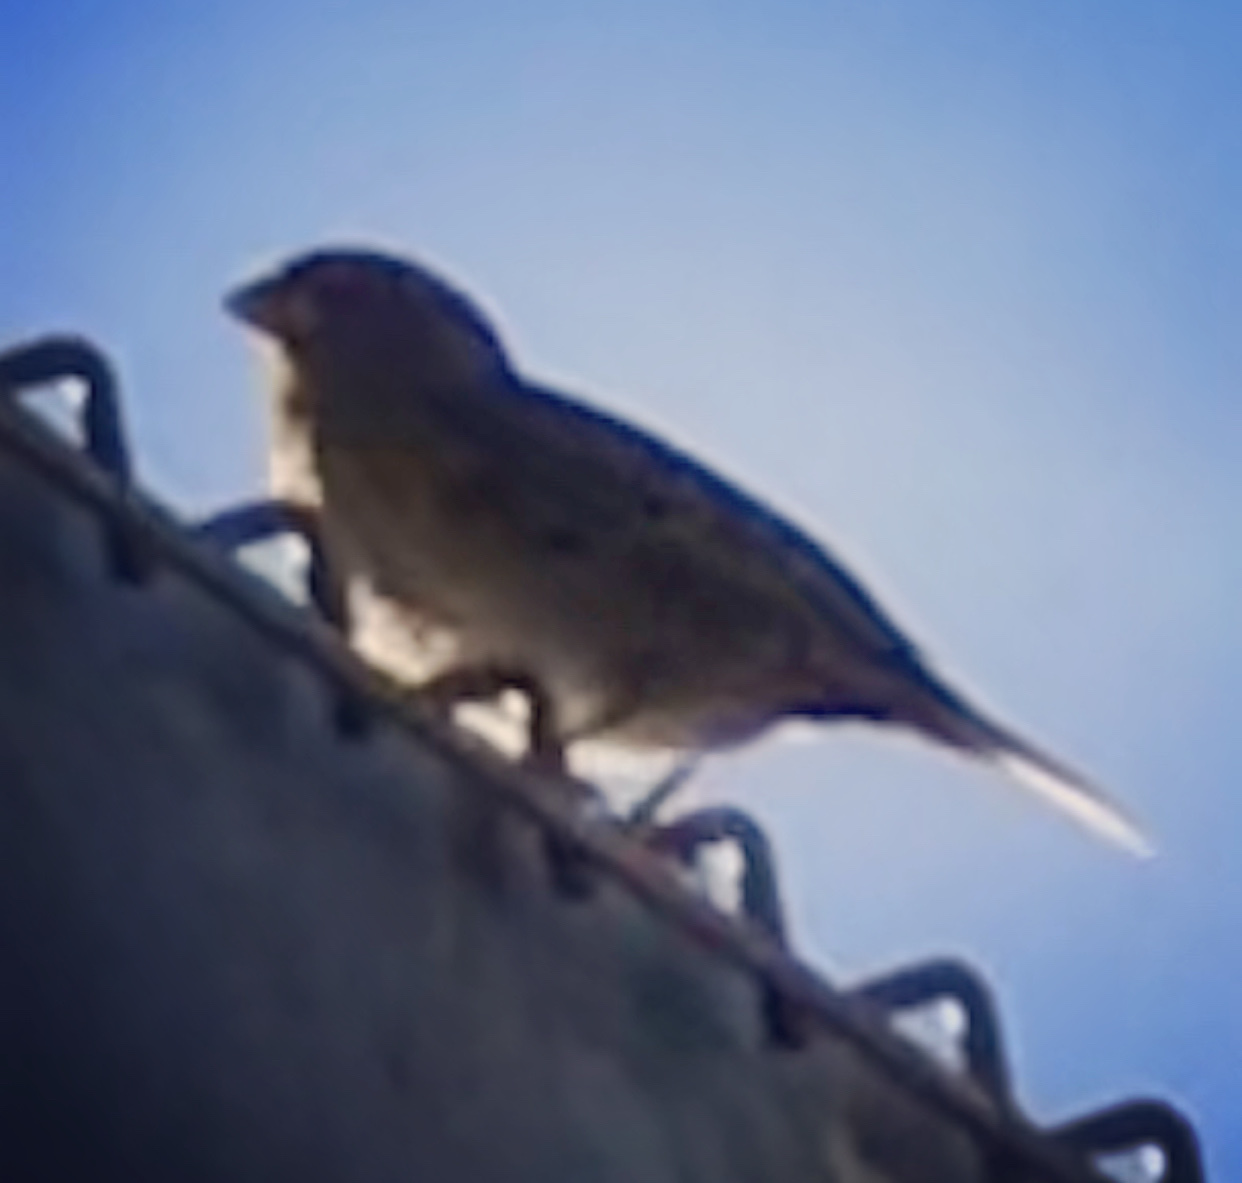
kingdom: Animalia
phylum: Chordata
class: Aves
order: Passeriformes
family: Passeridae
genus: Passer
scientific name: Passer domesticus
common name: House sparrow
